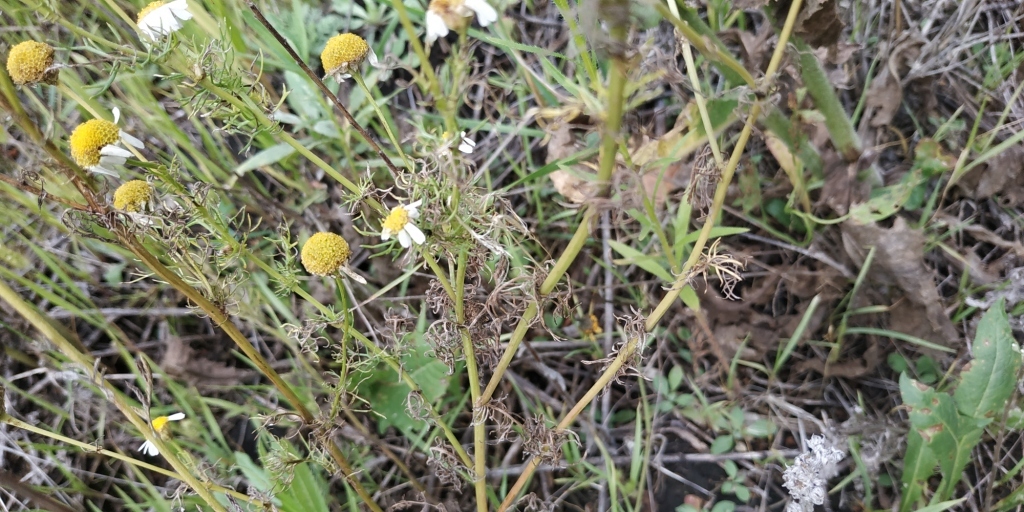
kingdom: Plantae
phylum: Tracheophyta
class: Magnoliopsida
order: Asterales
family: Asteraceae
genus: Tripleurospermum
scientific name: Tripleurospermum inodorum
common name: Scentless mayweed
